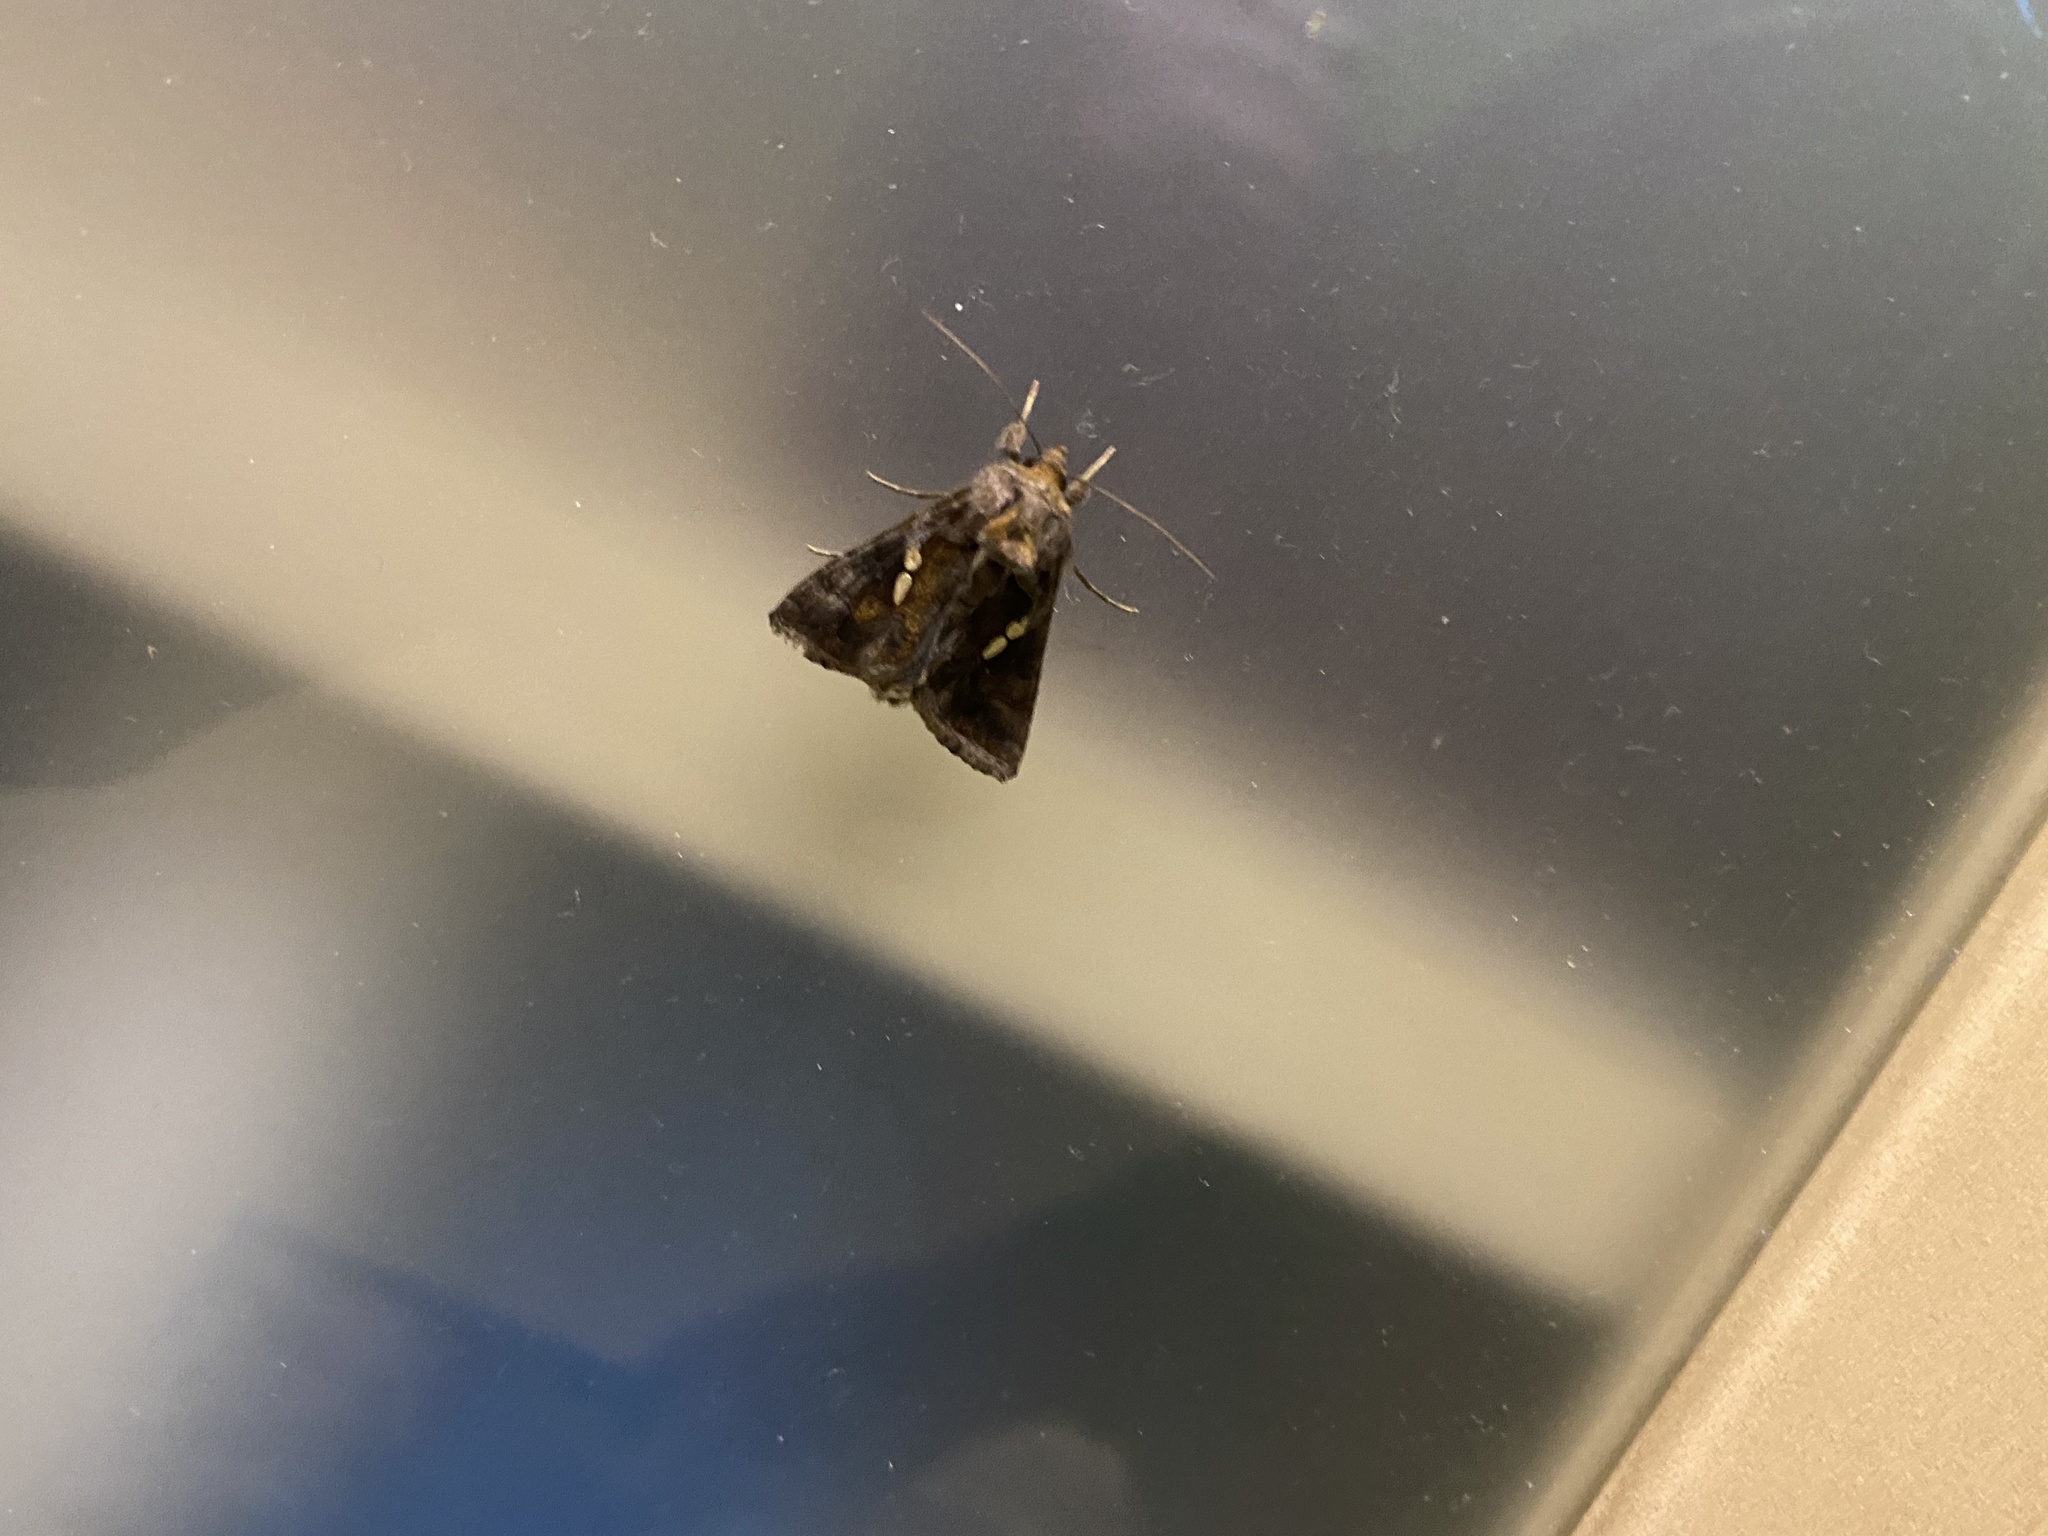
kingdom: Animalia
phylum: Arthropoda
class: Insecta
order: Lepidoptera
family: Noctuidae
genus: Chrysodeixis
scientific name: Chrysodeixis chalcites
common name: Golden twin-spot
